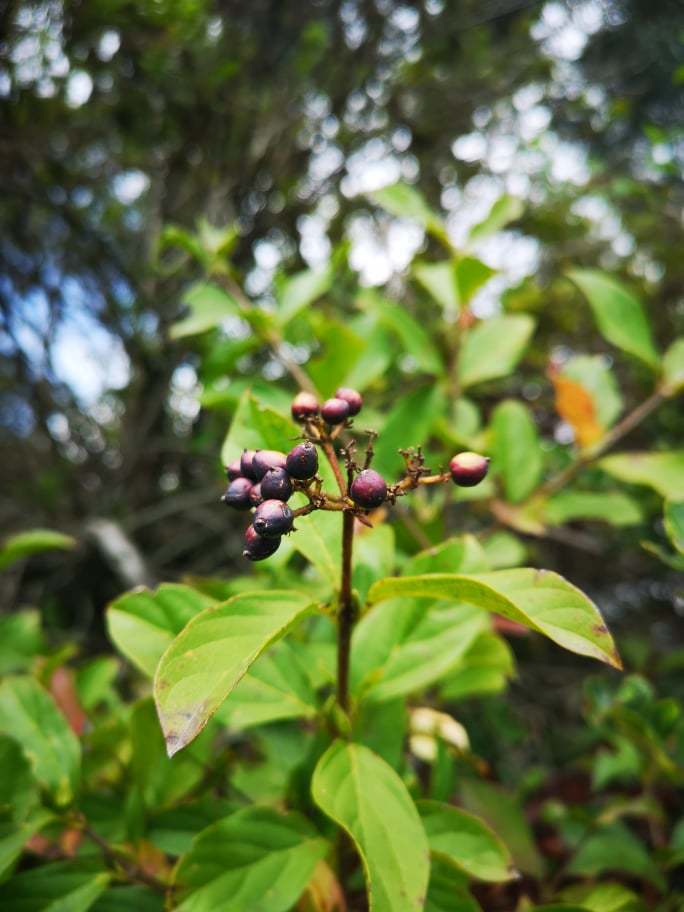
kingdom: Plantae
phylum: Tracheophyta
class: Magnoliopsida
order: Dipsacales
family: Viburnaceae
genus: Viburnum
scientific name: Viburnum triphyllum
